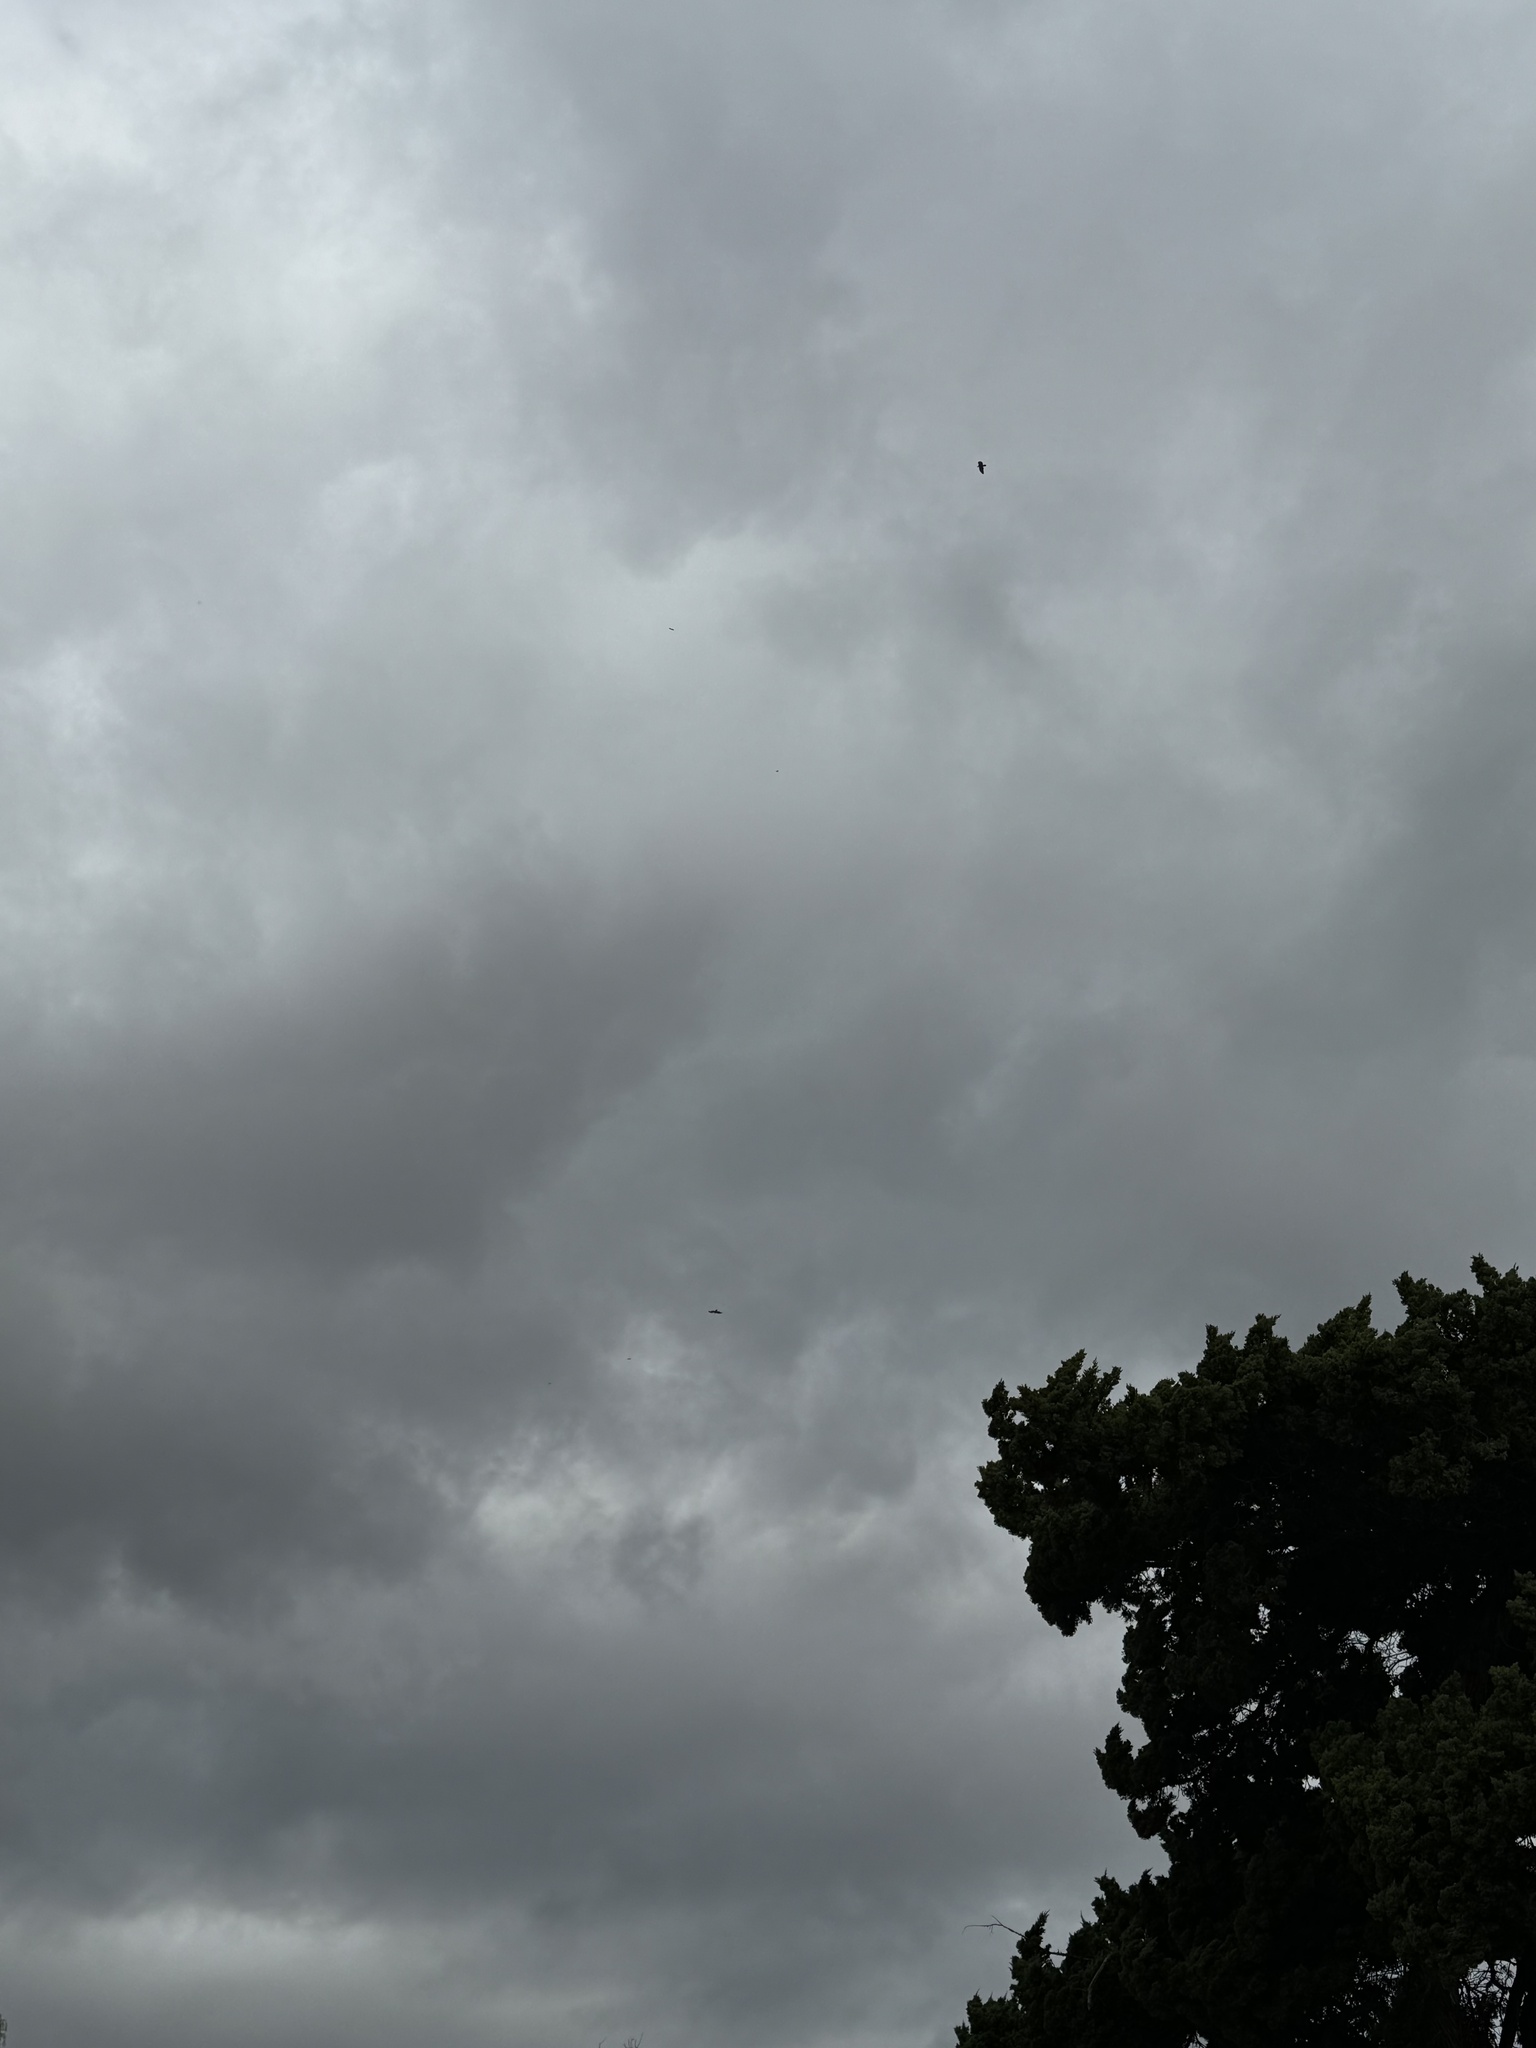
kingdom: Animalia
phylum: Chordata
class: Aves
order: Accipitriformes
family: Accipitridae
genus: Buteo
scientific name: Buteo jamaicensis
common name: Red-tailed hawk
